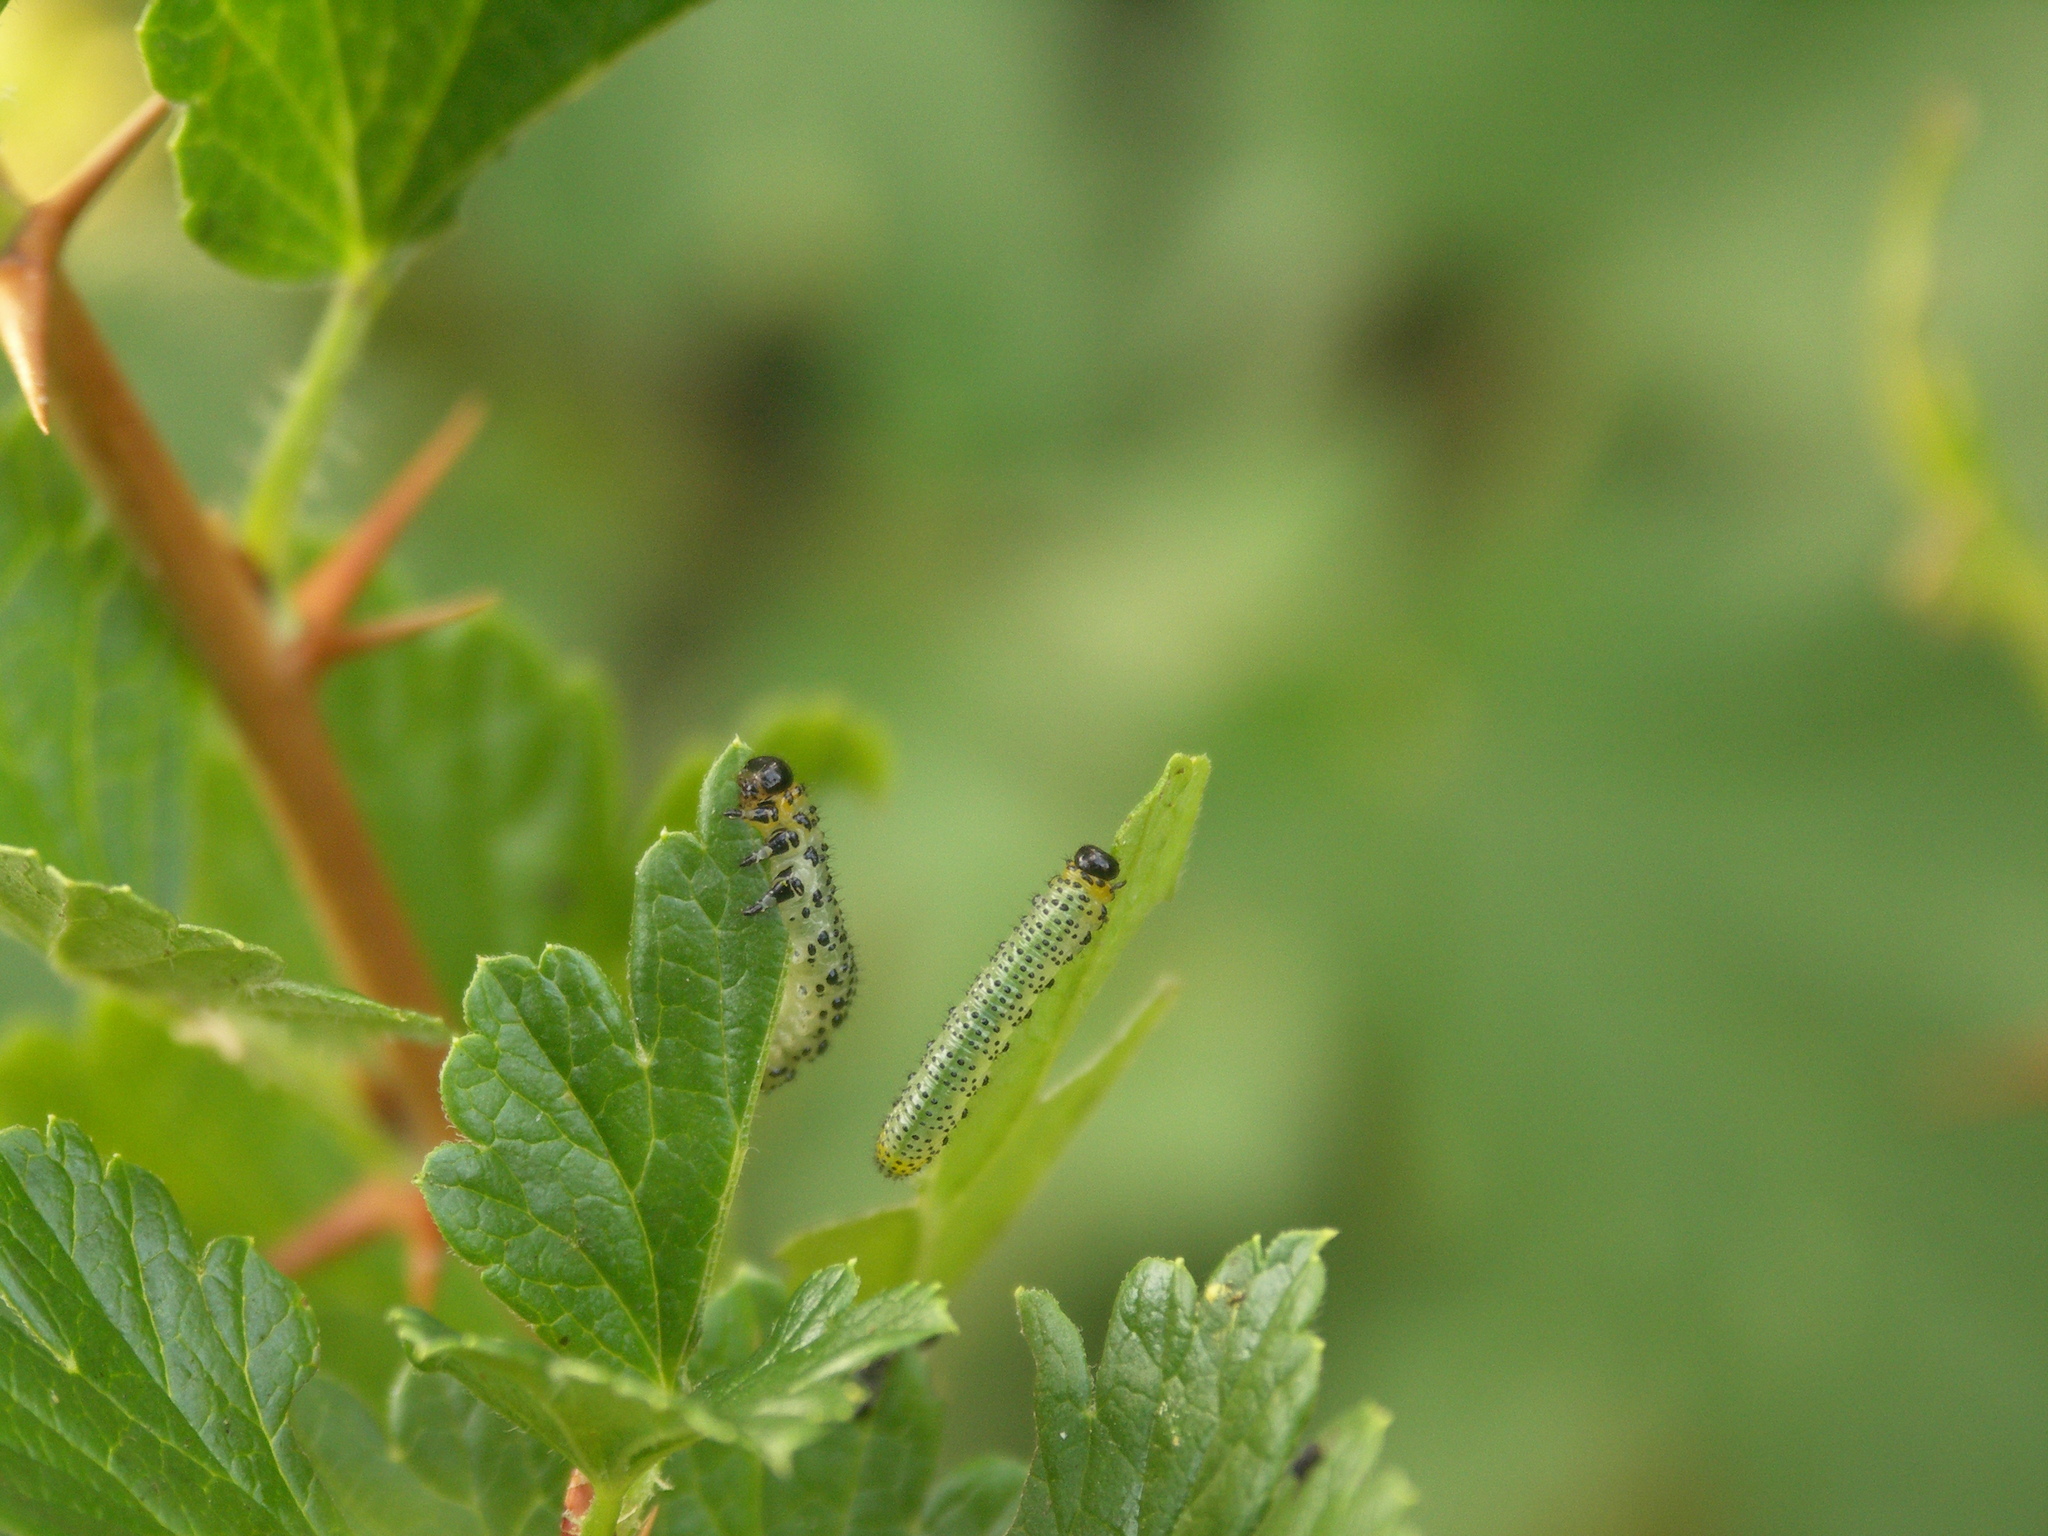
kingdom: Animalia
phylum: Arthropoda
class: Insecta
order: Hymenoptera
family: Tenthredinidae
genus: Nematus
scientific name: Nematus ribesii
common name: Imported currantworm
